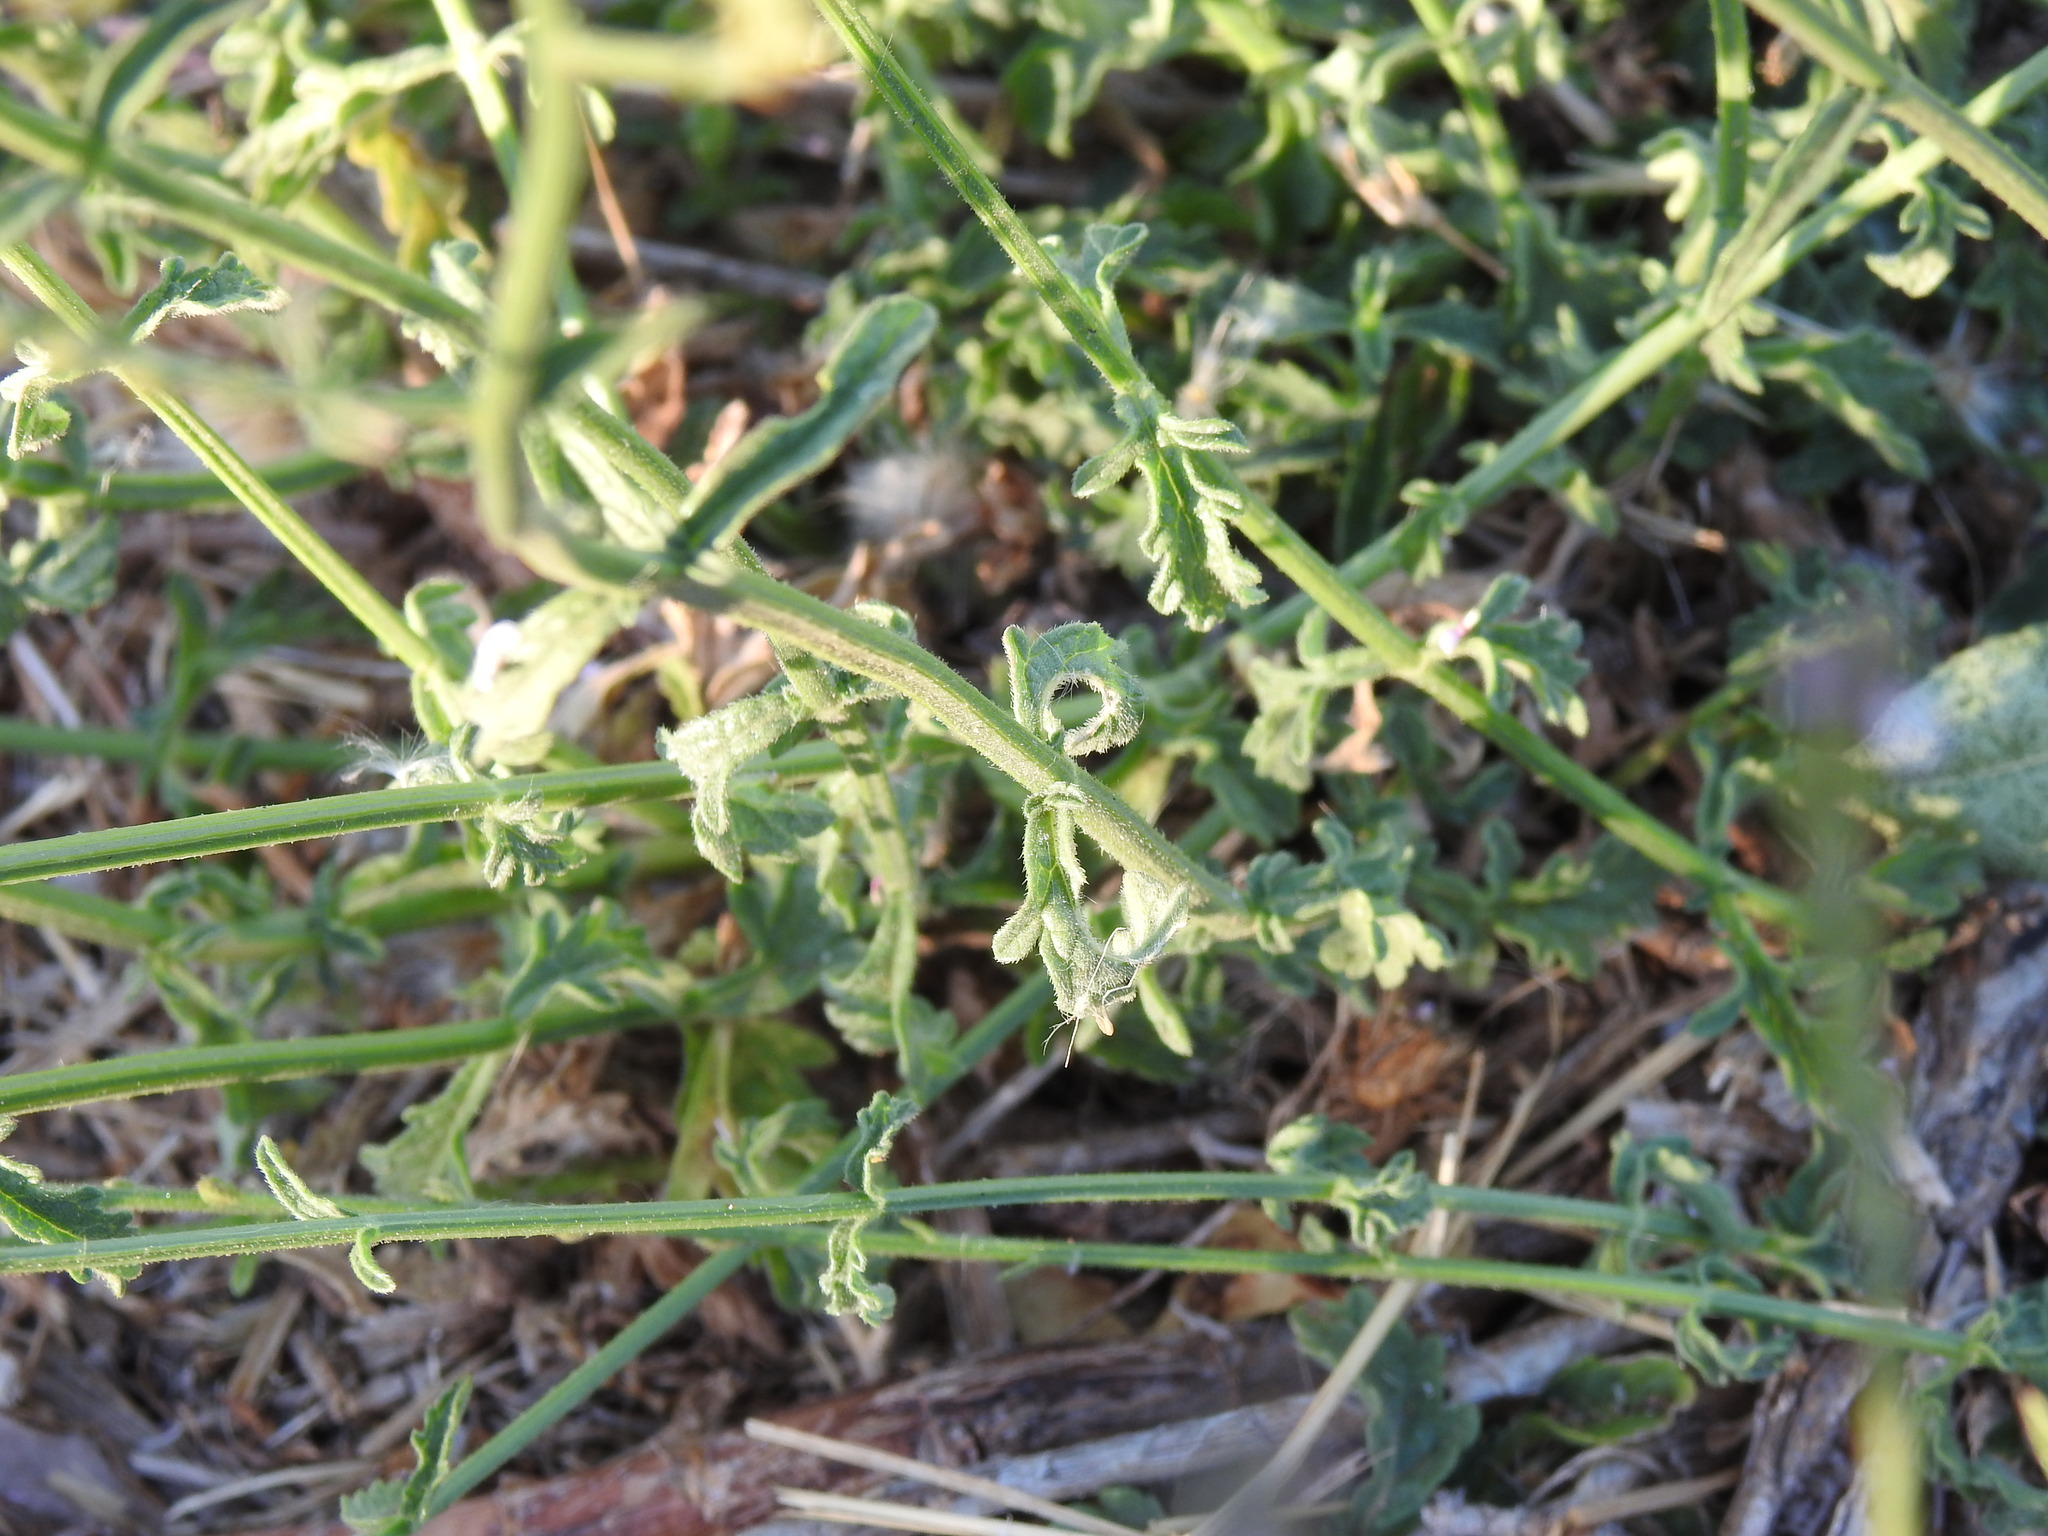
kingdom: Plantae
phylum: Tracheophyta
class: Magnoliopsida
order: Lamiales
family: Verbenaceae
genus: Verbena
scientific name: Verbena officinalis
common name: Vervain
